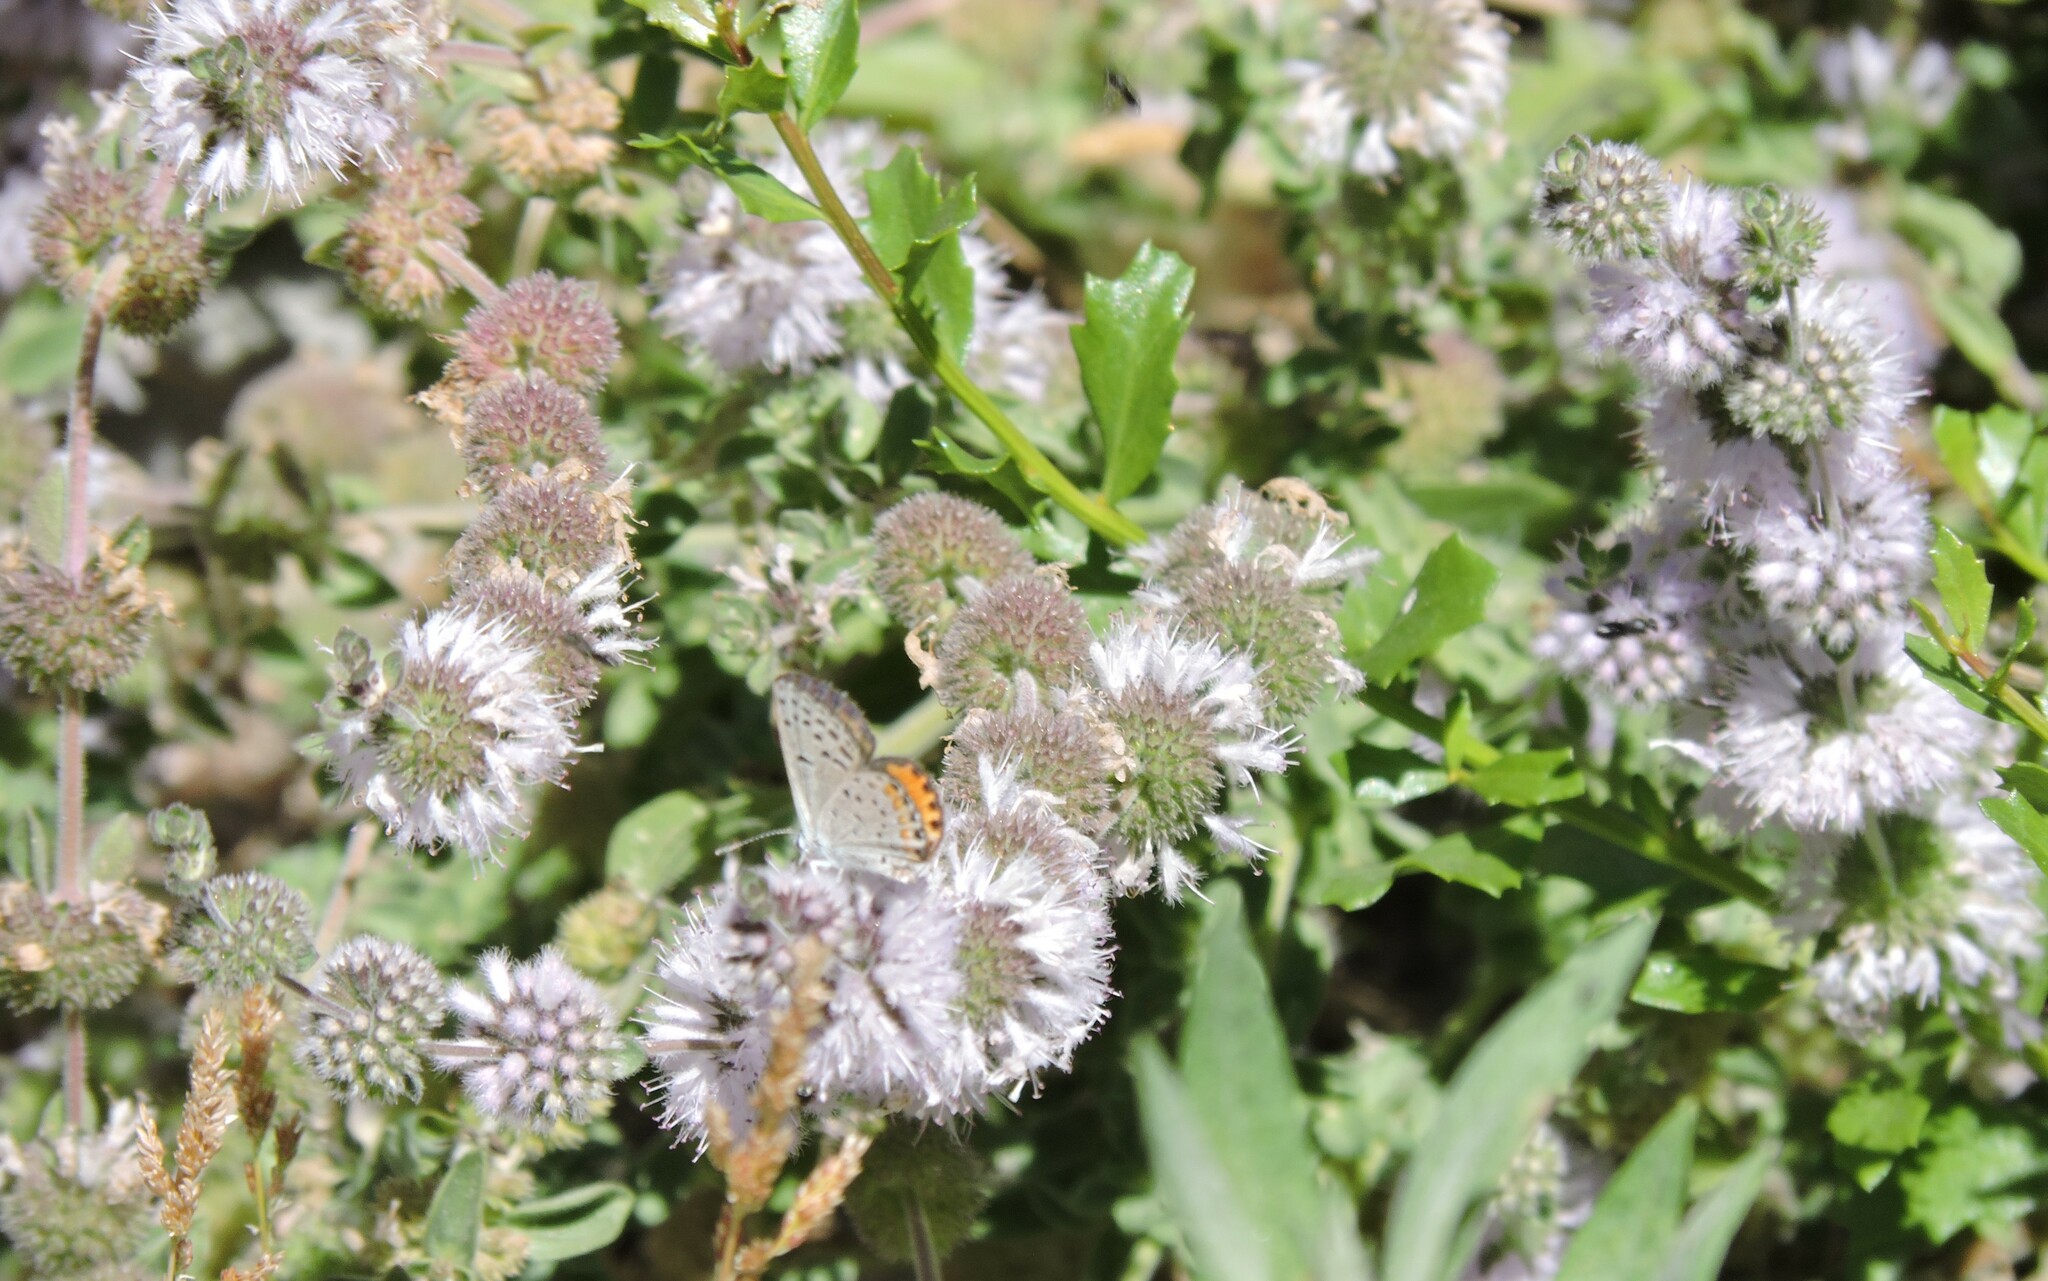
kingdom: Plantae
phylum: Tracheophyta
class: Magnoliopsida
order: Lamiales
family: Lamiaceae
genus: Mentha
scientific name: Mentha pulegium
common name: Pennyroyal
